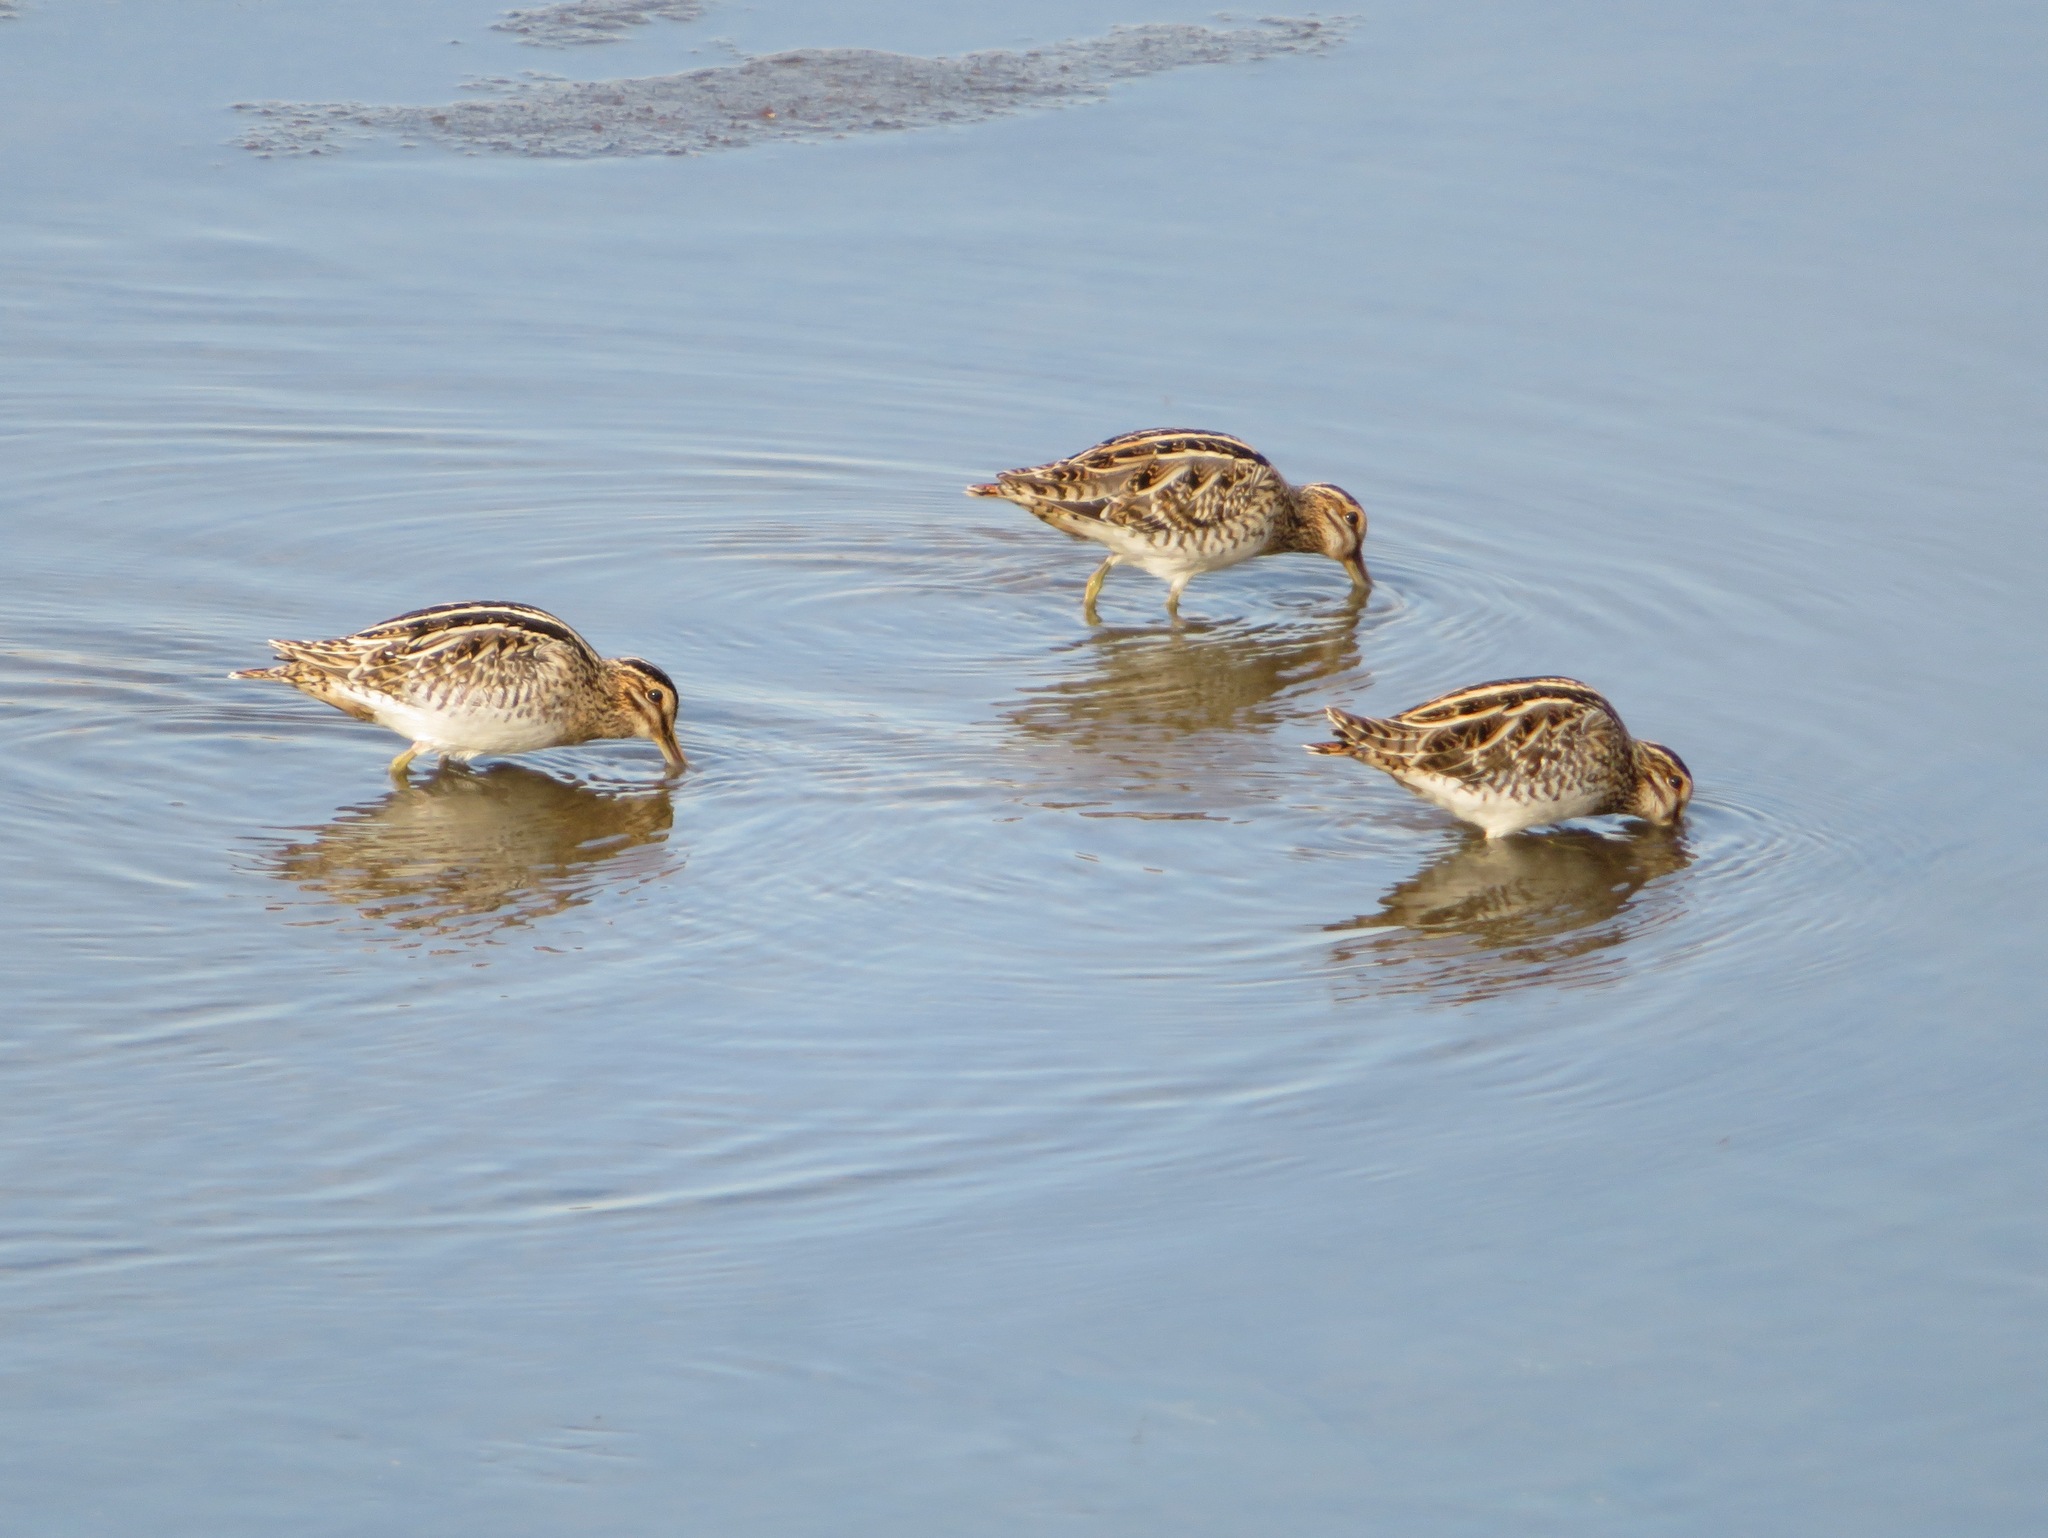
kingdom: Animalia
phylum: Chordata
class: Aves
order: Charadriiformes
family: Scolopacidae
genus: Gallinago
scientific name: Gallinago gallinago
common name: Common snipe
